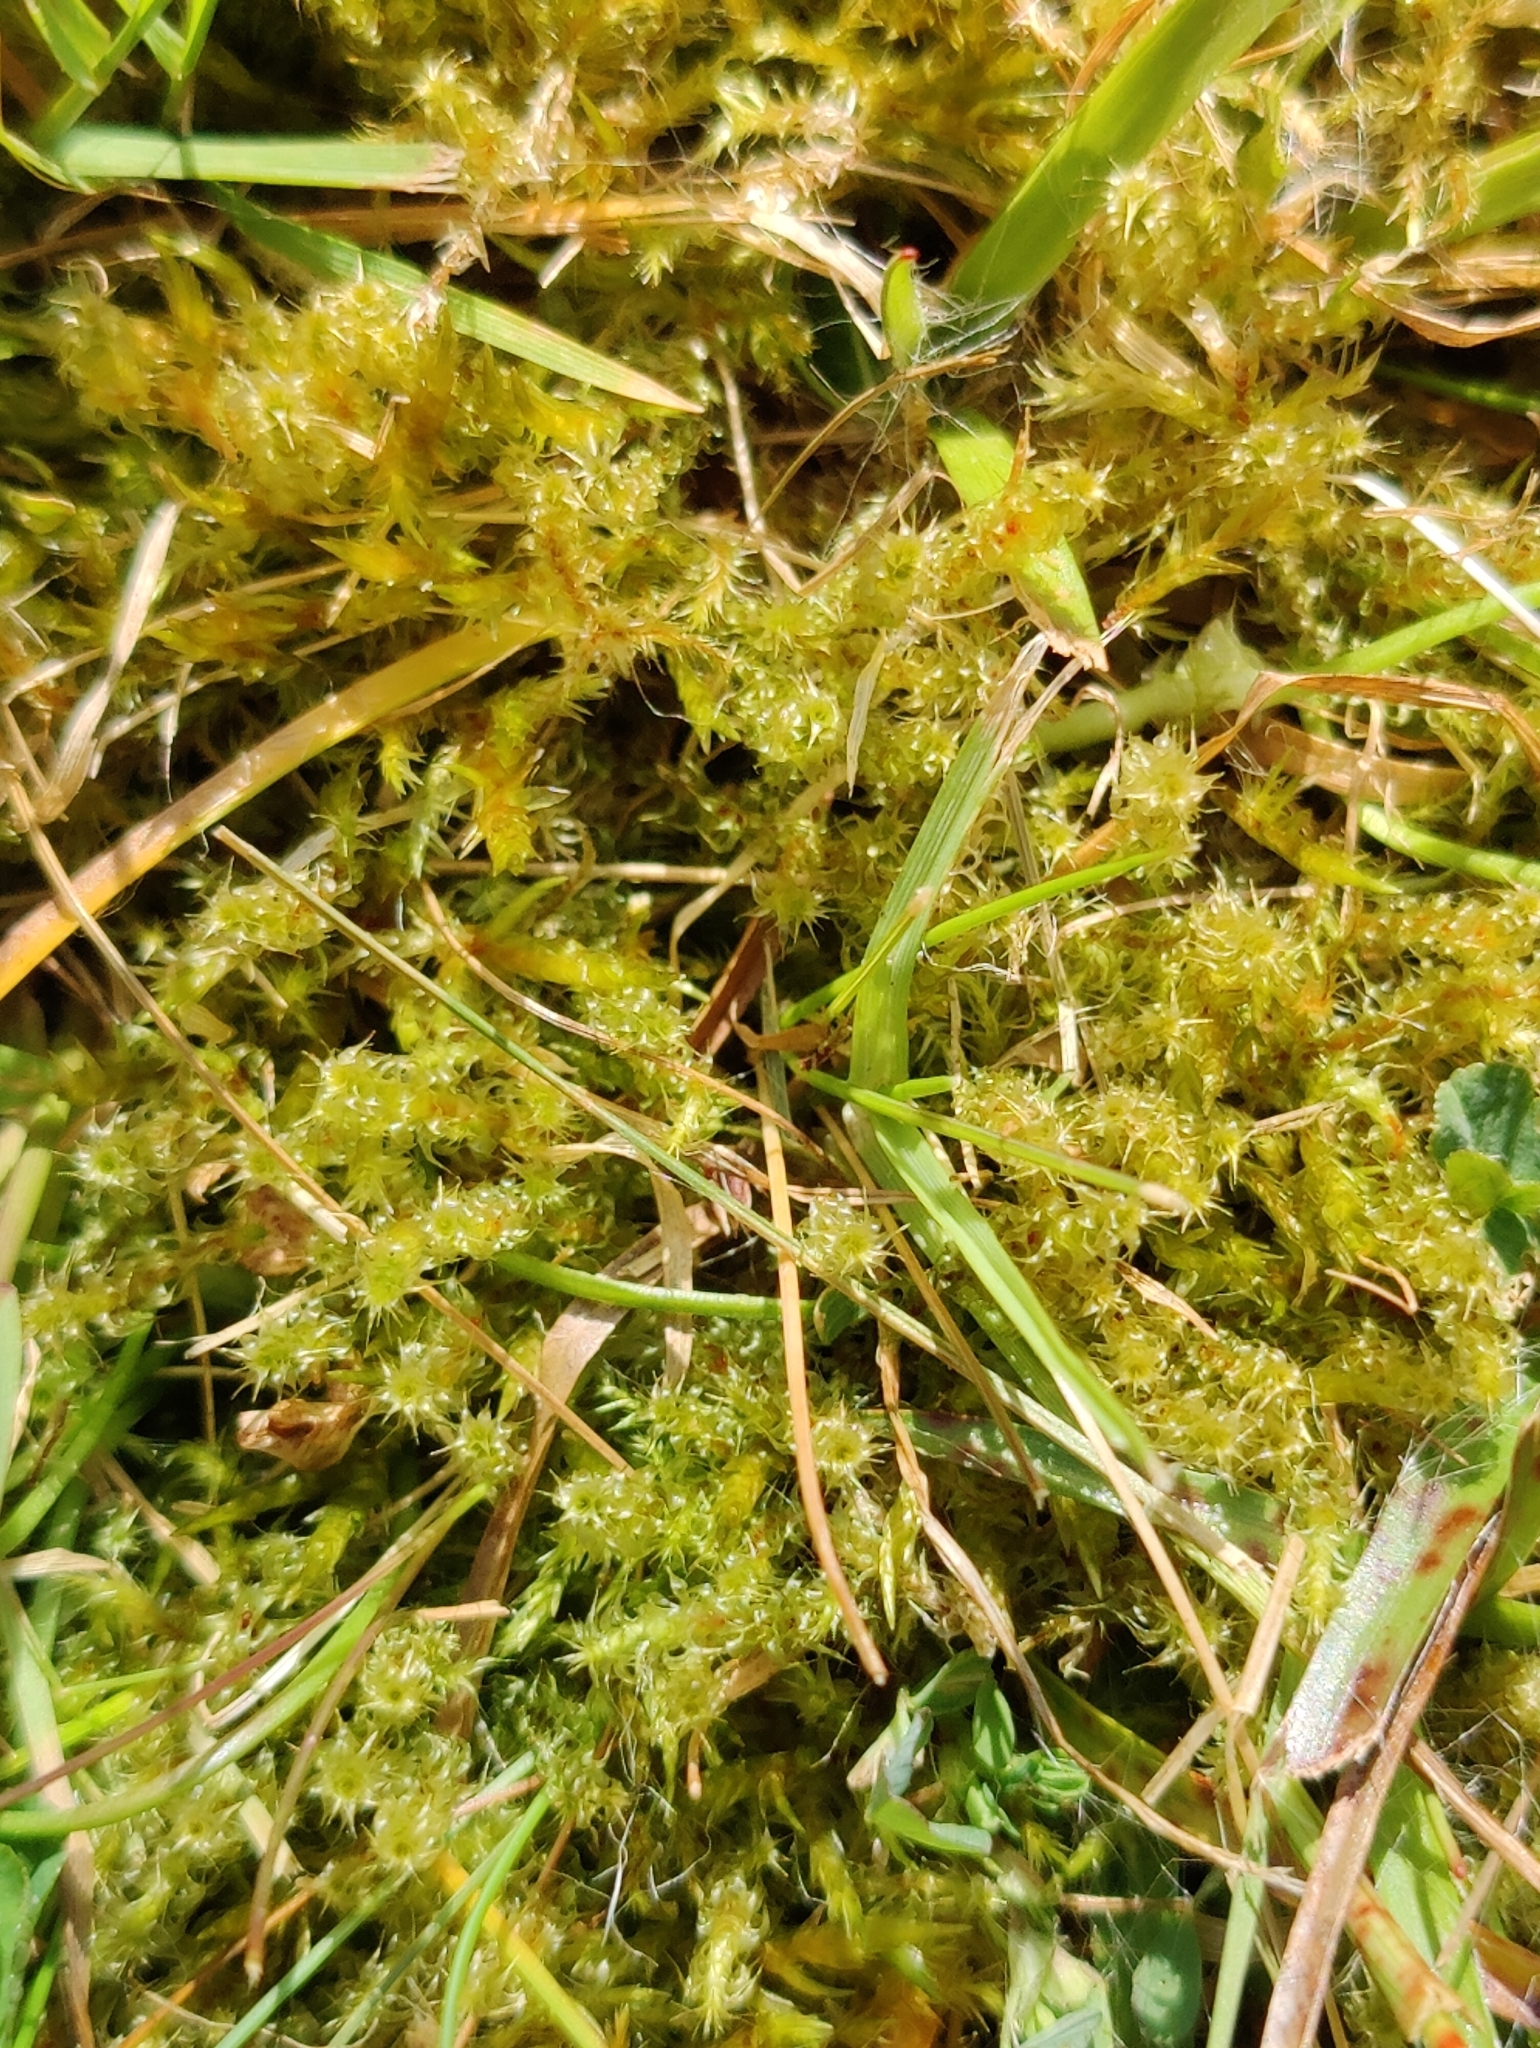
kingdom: Plantae
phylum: Bryophyta
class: Bryopsida
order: Hypnales
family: Hylocomiaceae
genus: Rhytidiadelphus
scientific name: Rhytidiadelphus squarrosus
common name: Springy turf-moss
